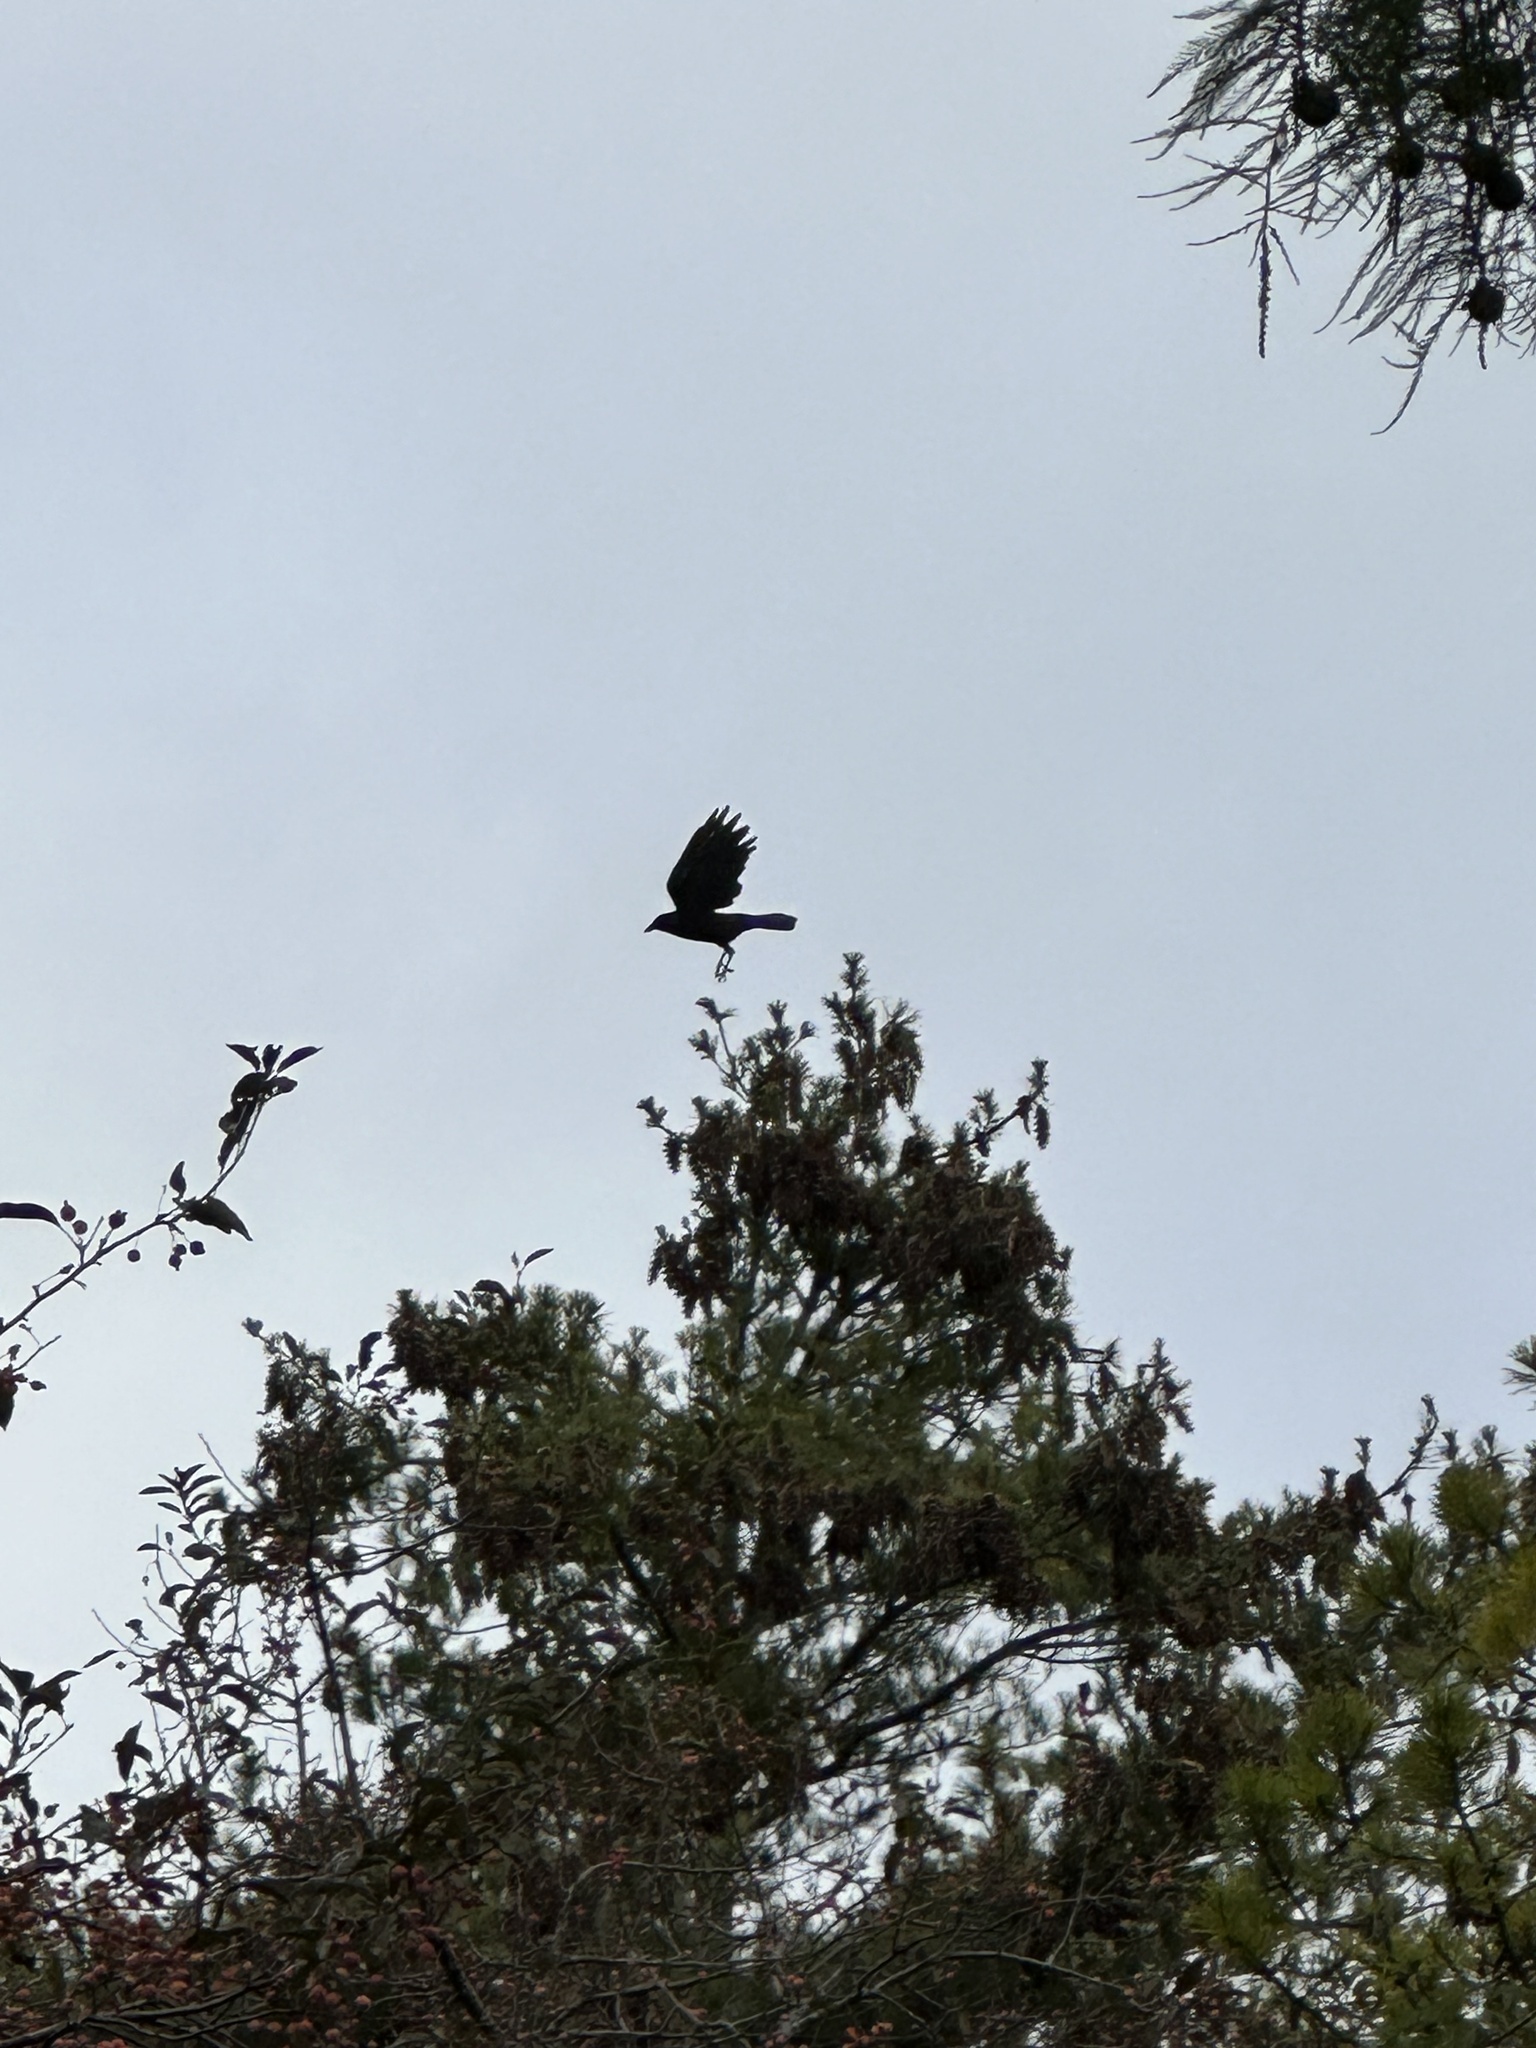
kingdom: Animalia
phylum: Chordata
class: Aves
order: Passeriformes
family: Corvidae
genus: Corvus
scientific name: Corvus brachyrhynchos
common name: American crow
